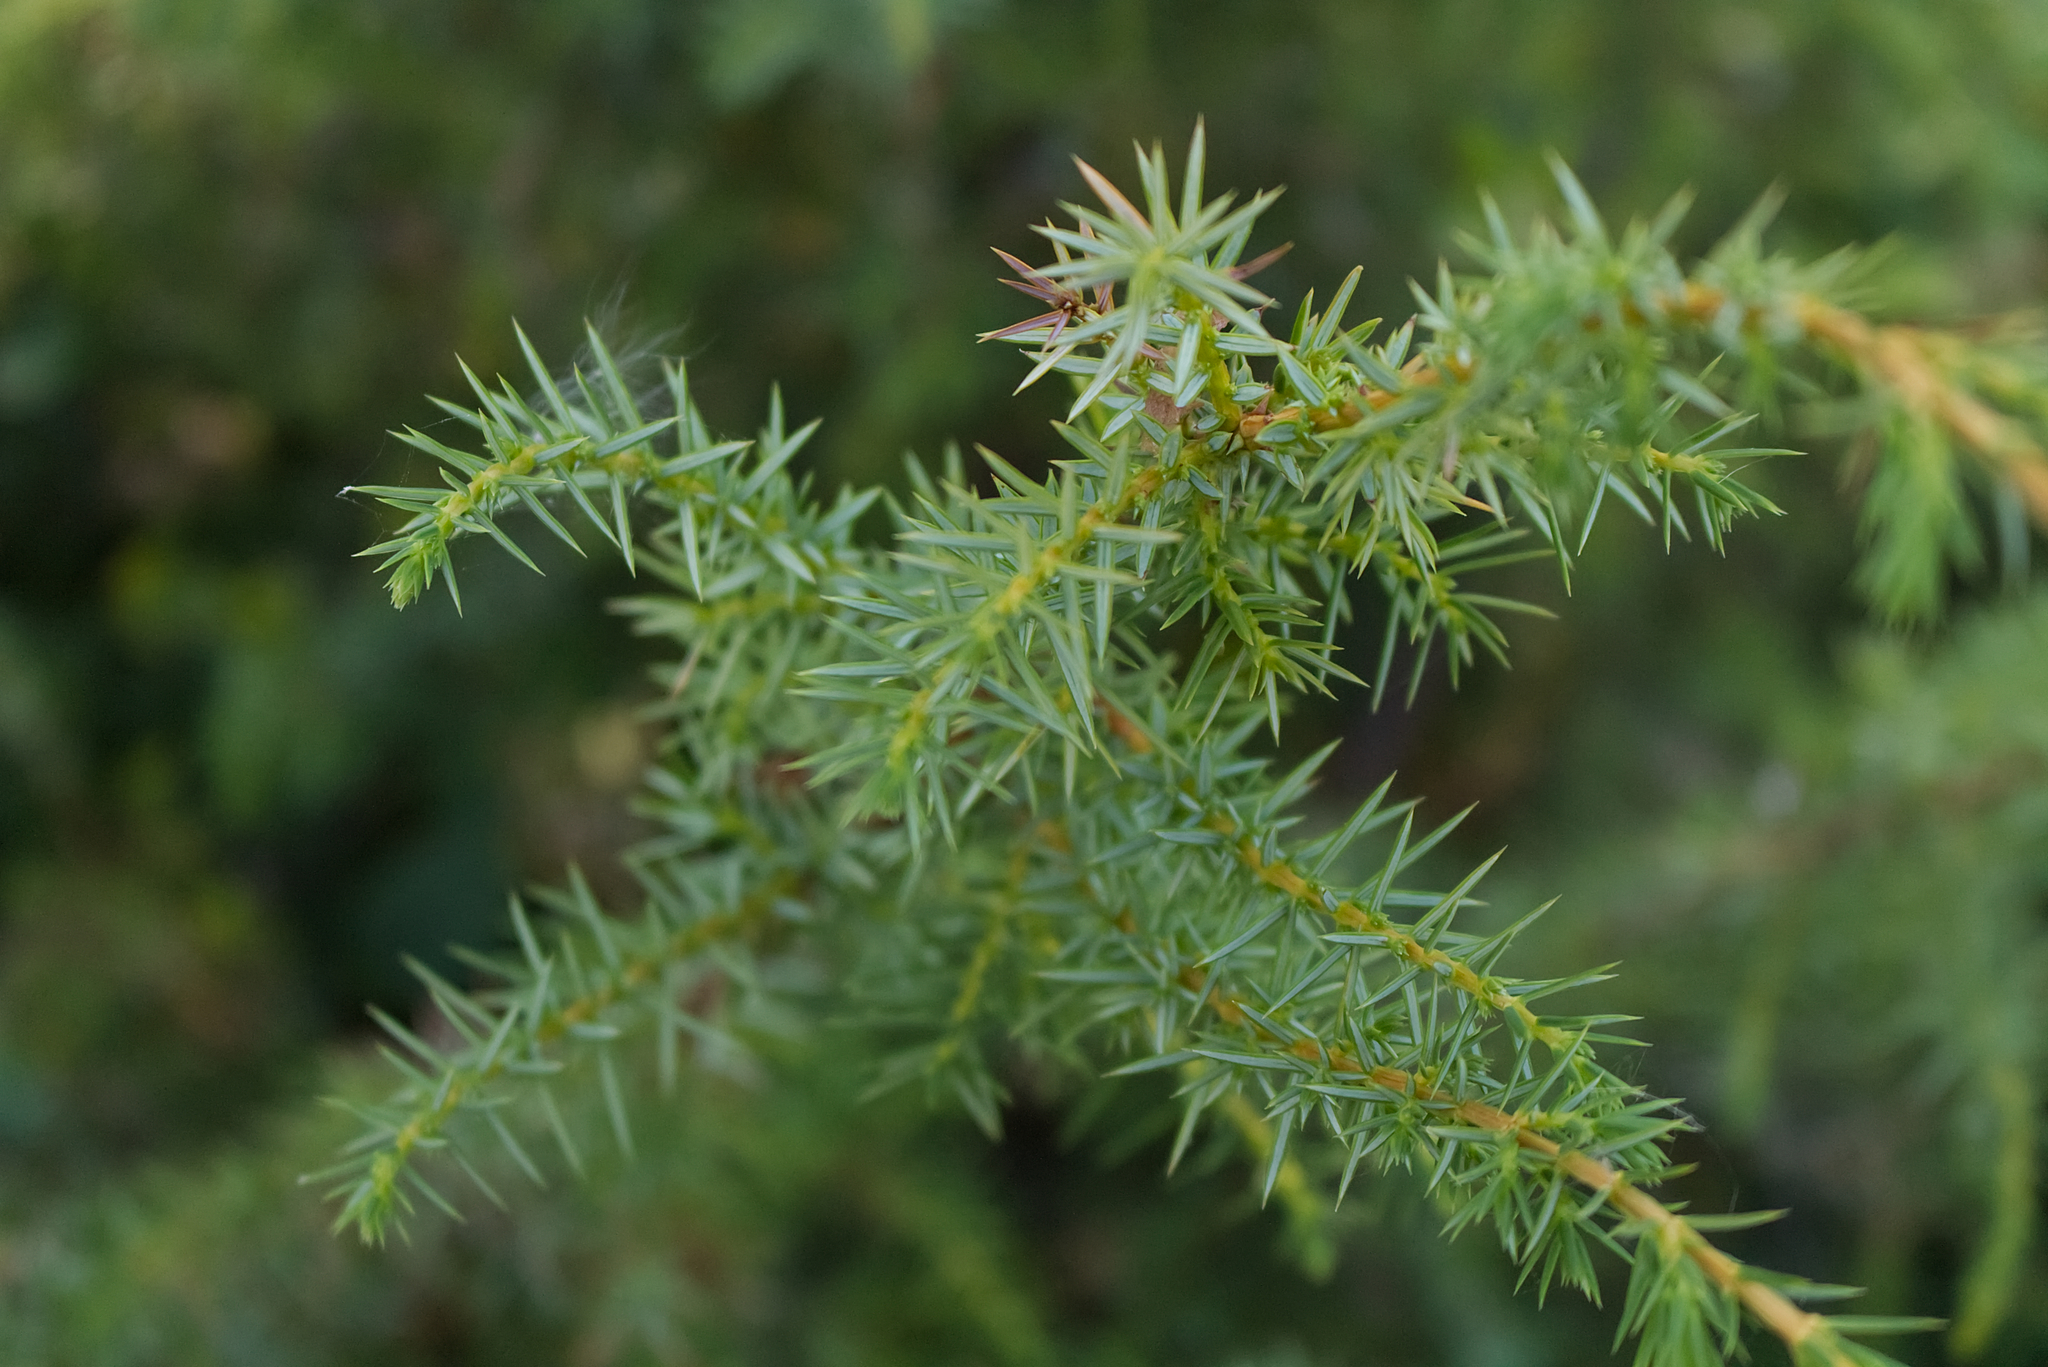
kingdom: Plantae
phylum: Tracheophyta
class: Pinopsida
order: Pinales
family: Cupressaceae
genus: Juniperus
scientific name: Juniperus communis
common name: Common juniper
